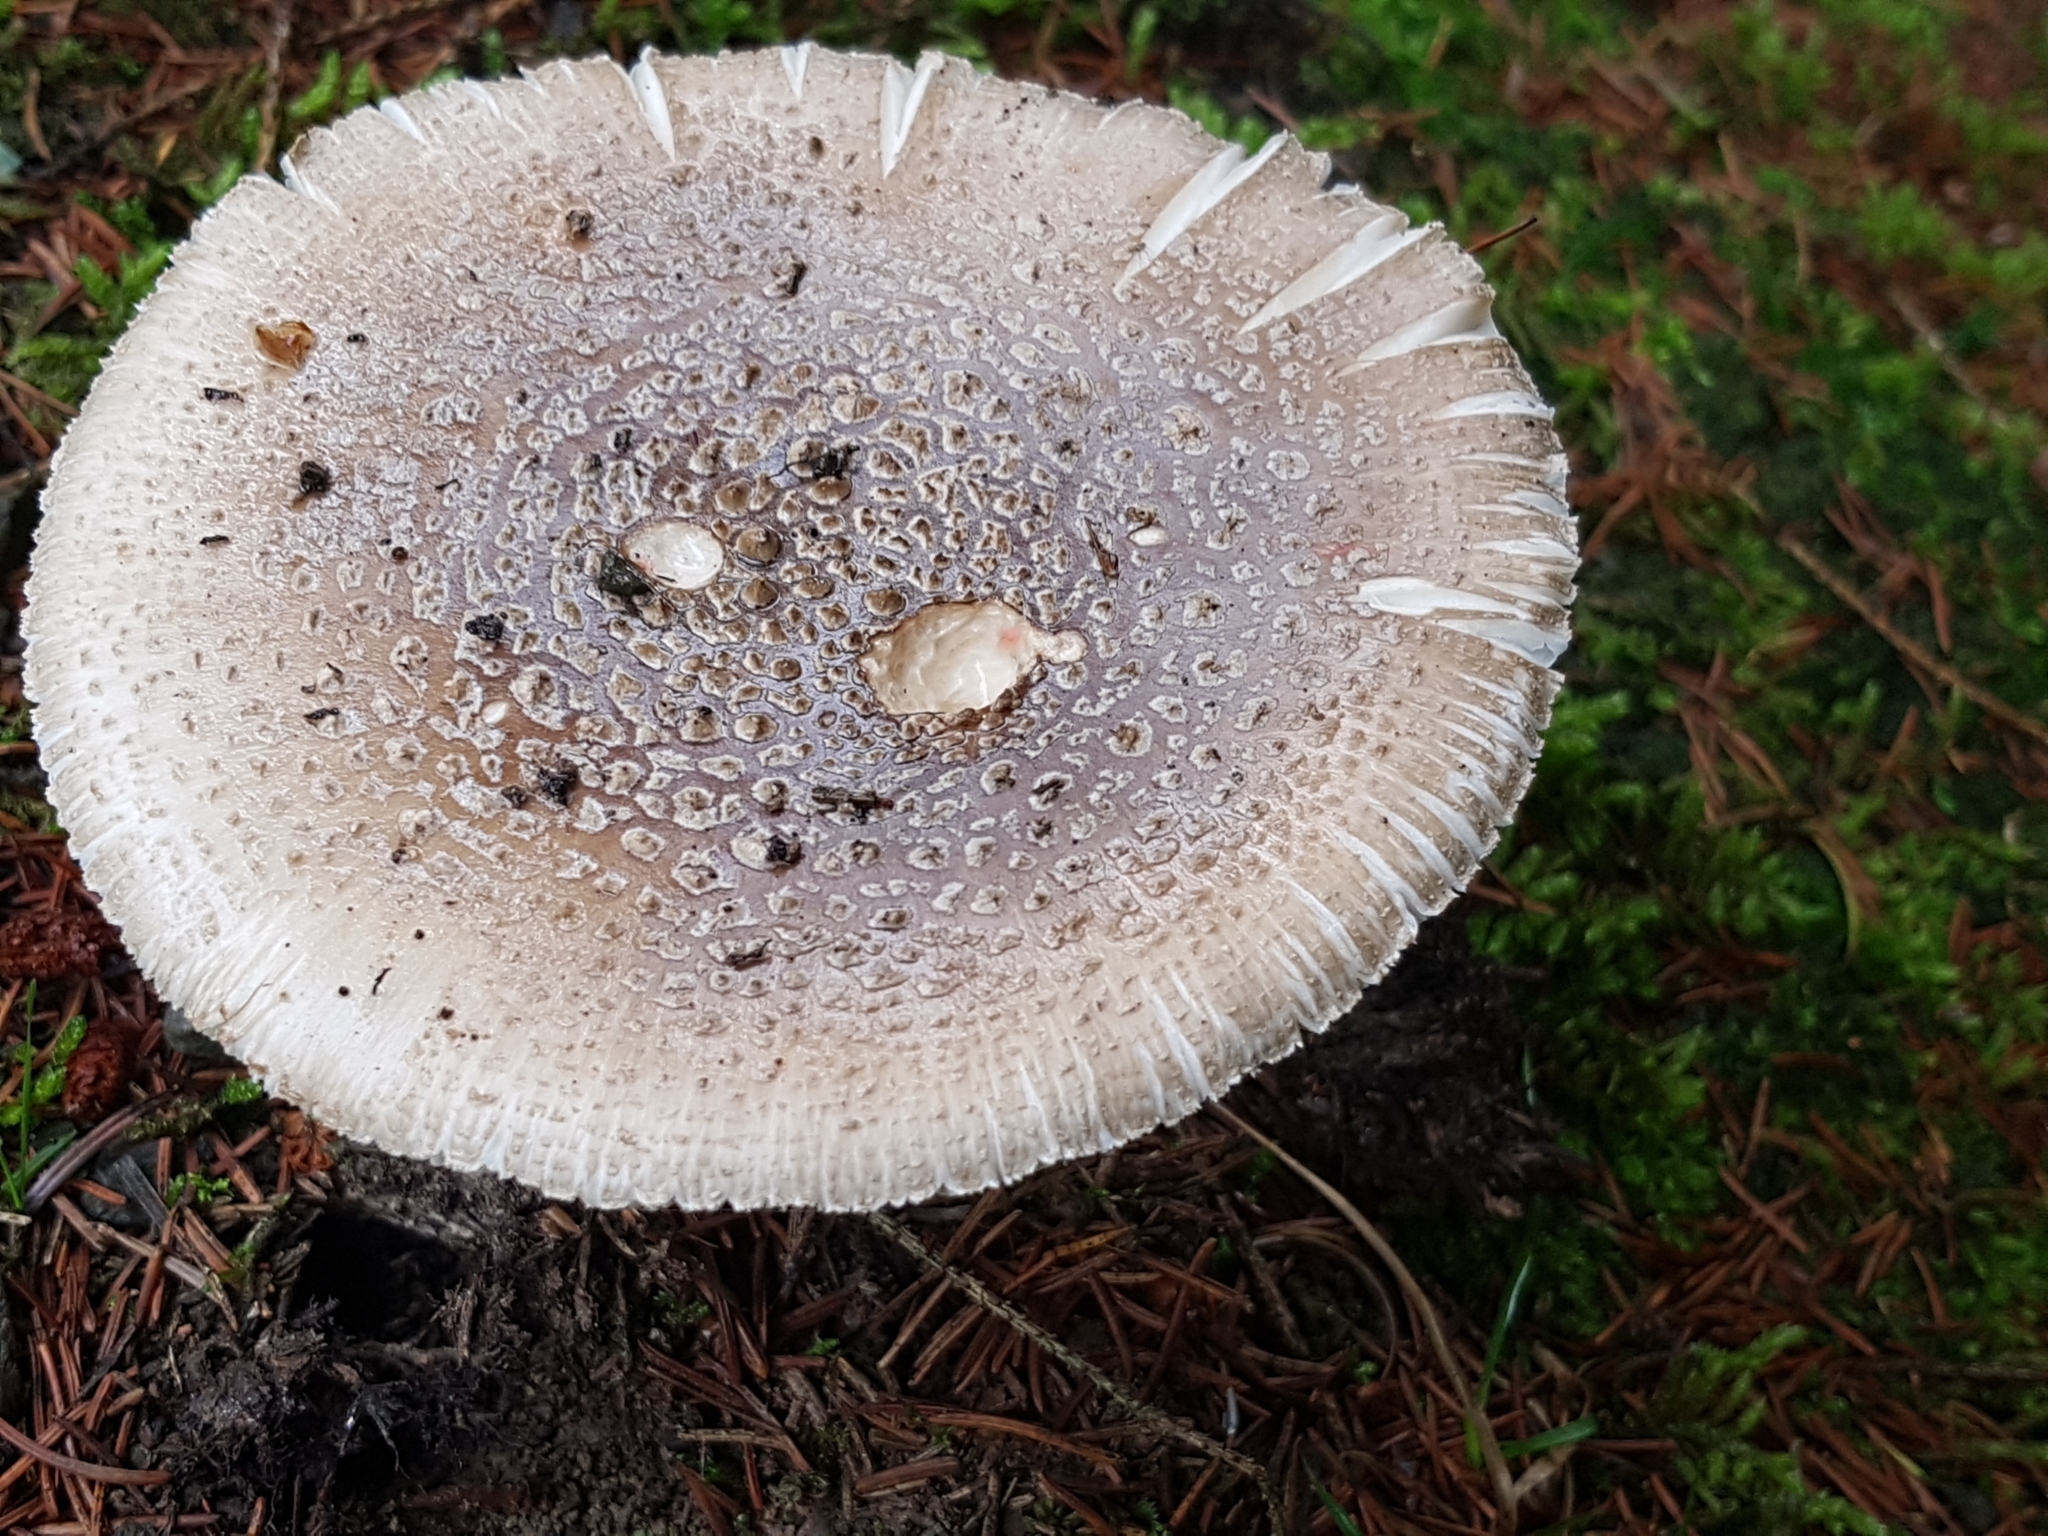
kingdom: Fungi
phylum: Basidiomycota
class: Agaricomycetes
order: Agaricales
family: Amanitaceae
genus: Amanita
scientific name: Amanita excelsa
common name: European false blusher
